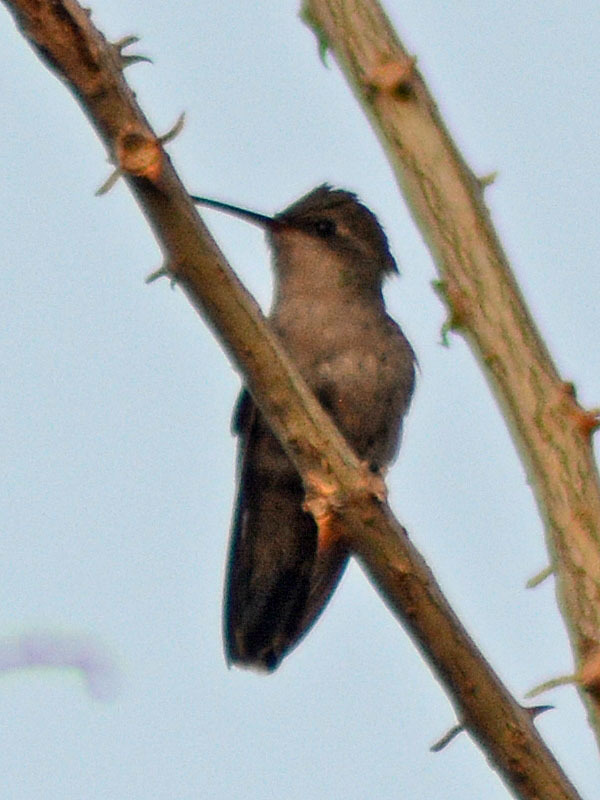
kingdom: Animalia
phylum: Chordata
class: Aves
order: Apodiformes
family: Trochilidae
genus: Cynanthus
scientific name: Cynanthus latirostris
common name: Broad-billed hummingbird
